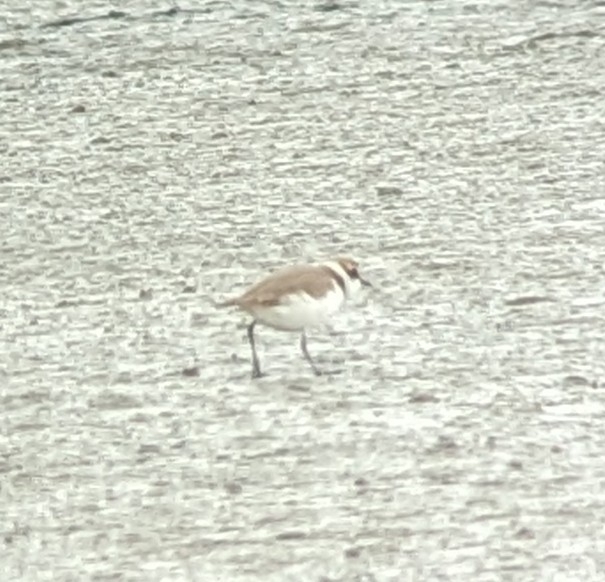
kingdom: Animalia
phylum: Chordata
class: Aves
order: Charadriiformes
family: Charadriidae
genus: Charadrius
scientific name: Charadrius alexandrinus
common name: Kentish plover
